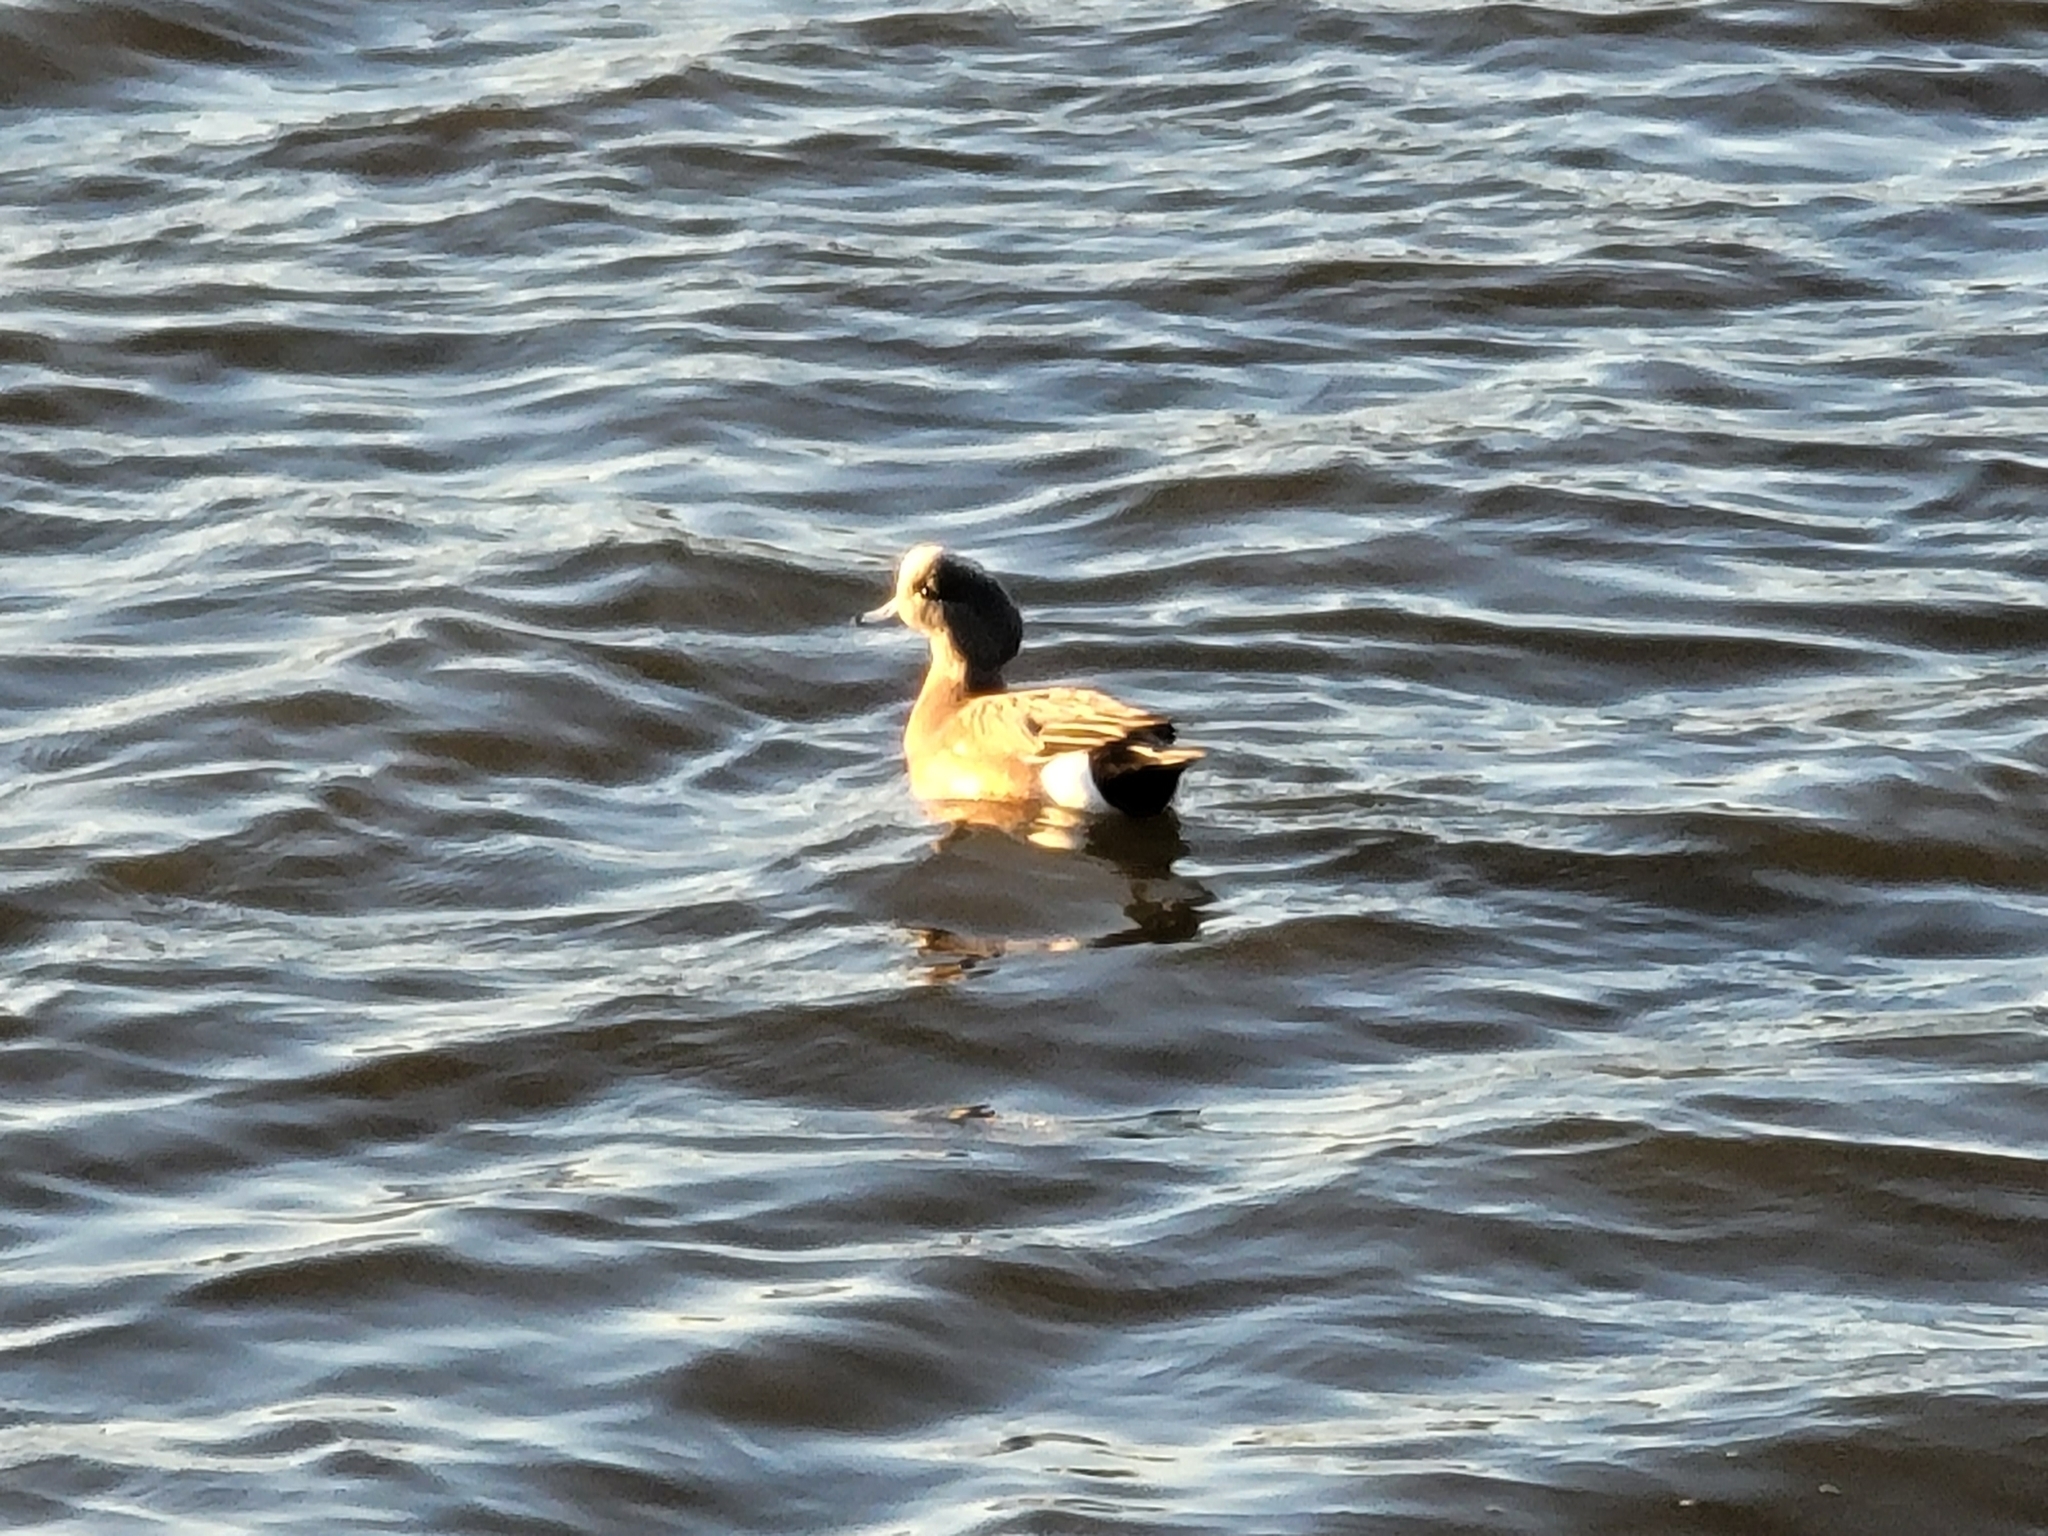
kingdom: Animalia
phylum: Chordata
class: Aves
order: Anseriformes
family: Anatidae
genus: Mareca
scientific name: Mareca americana
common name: American wigeon
